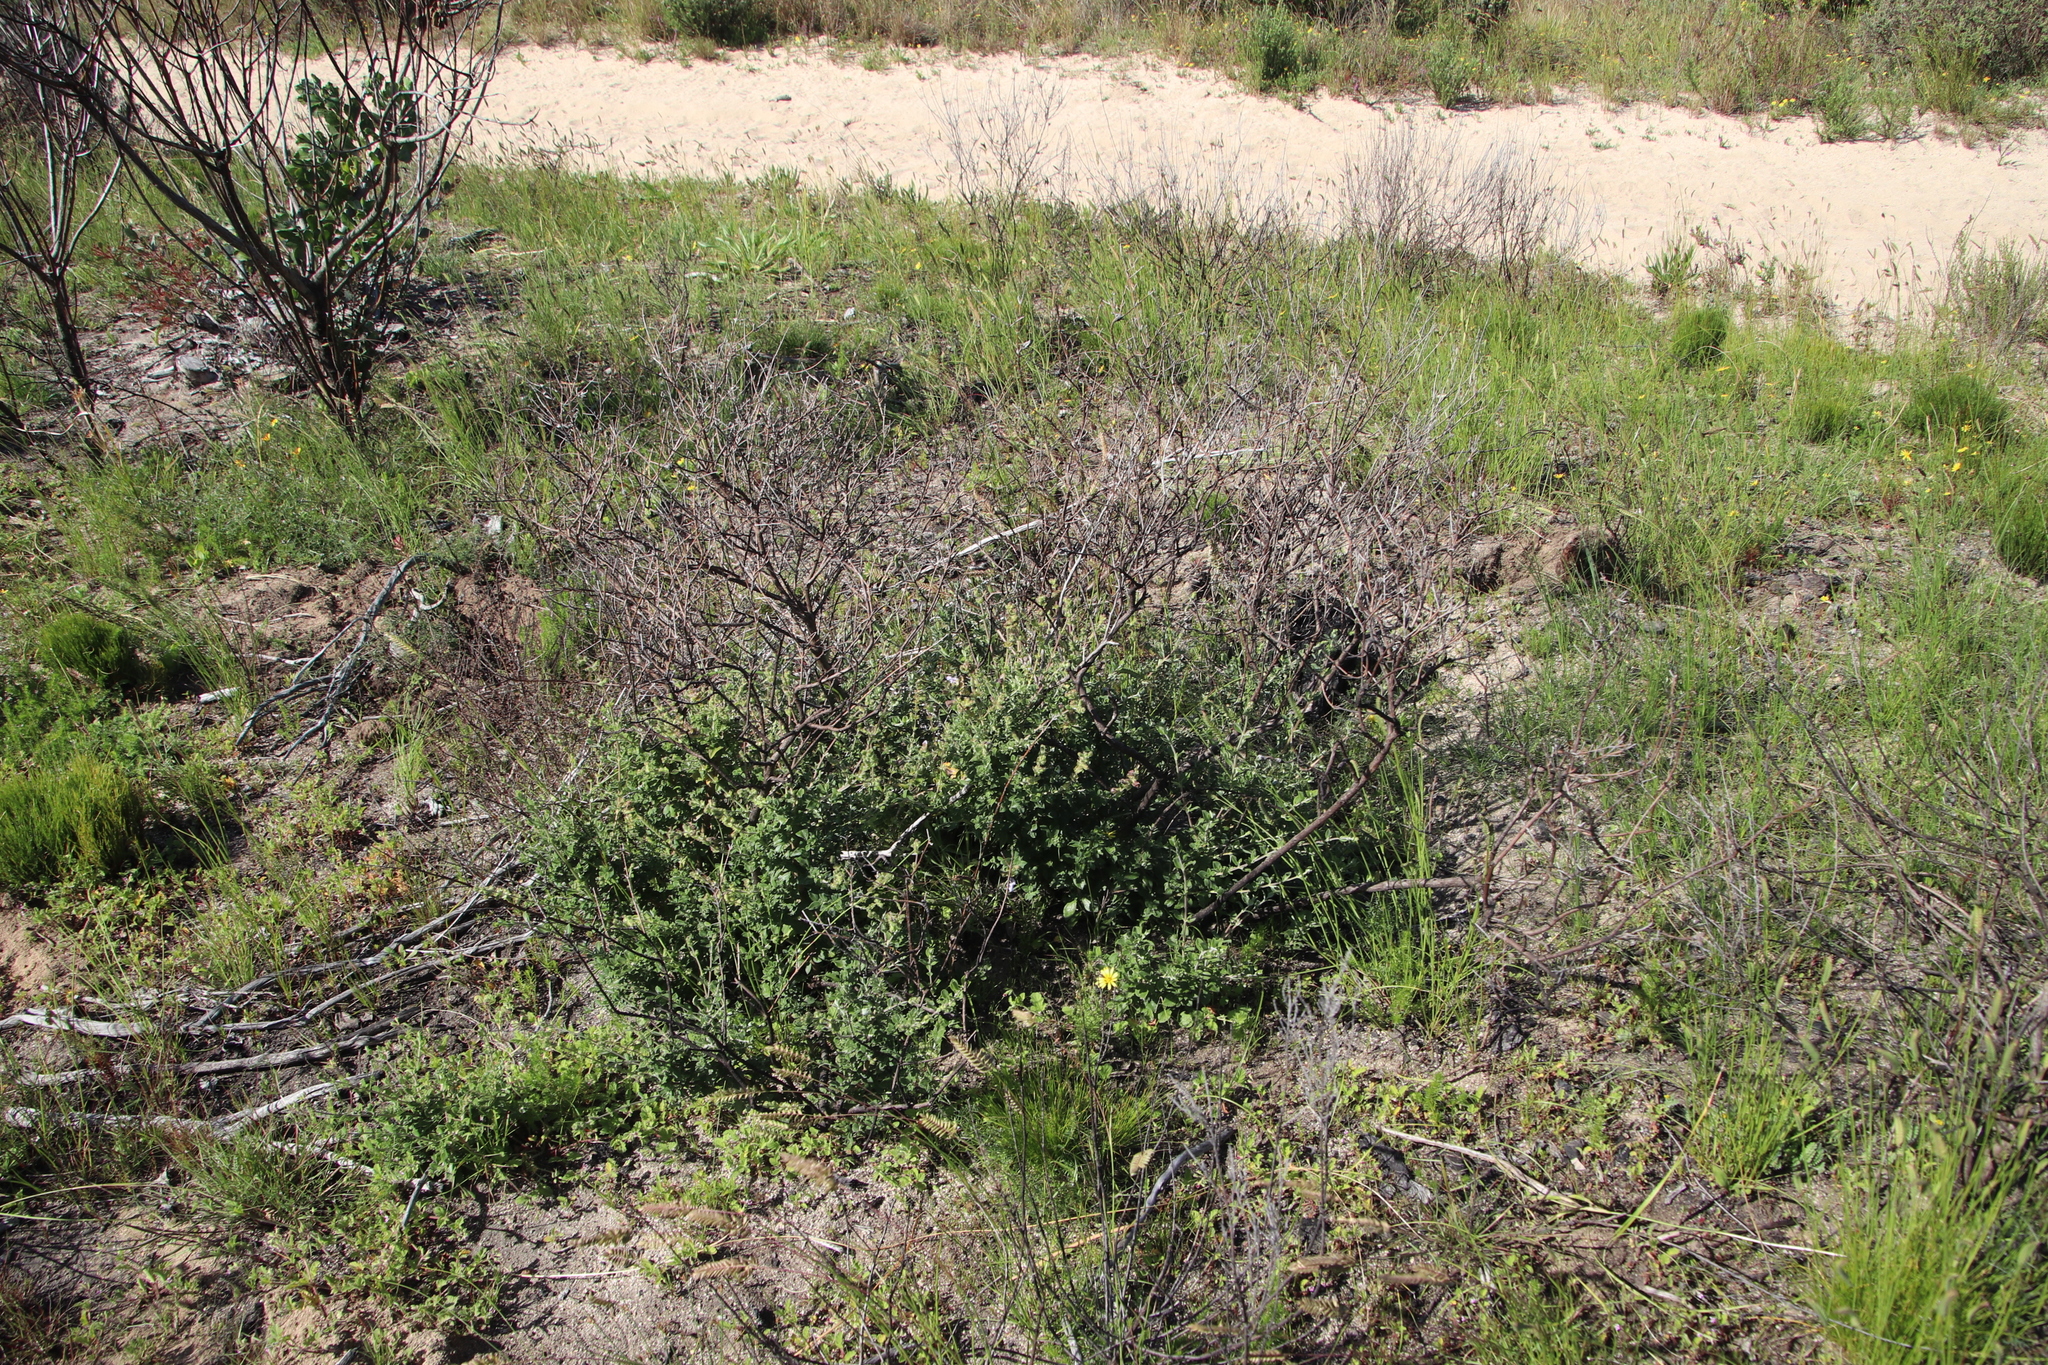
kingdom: Plantae
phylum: Tracheophyta
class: Magnoliopsida
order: Lamiales
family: Lamiaceae
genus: Salvia
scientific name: Salvia africana
